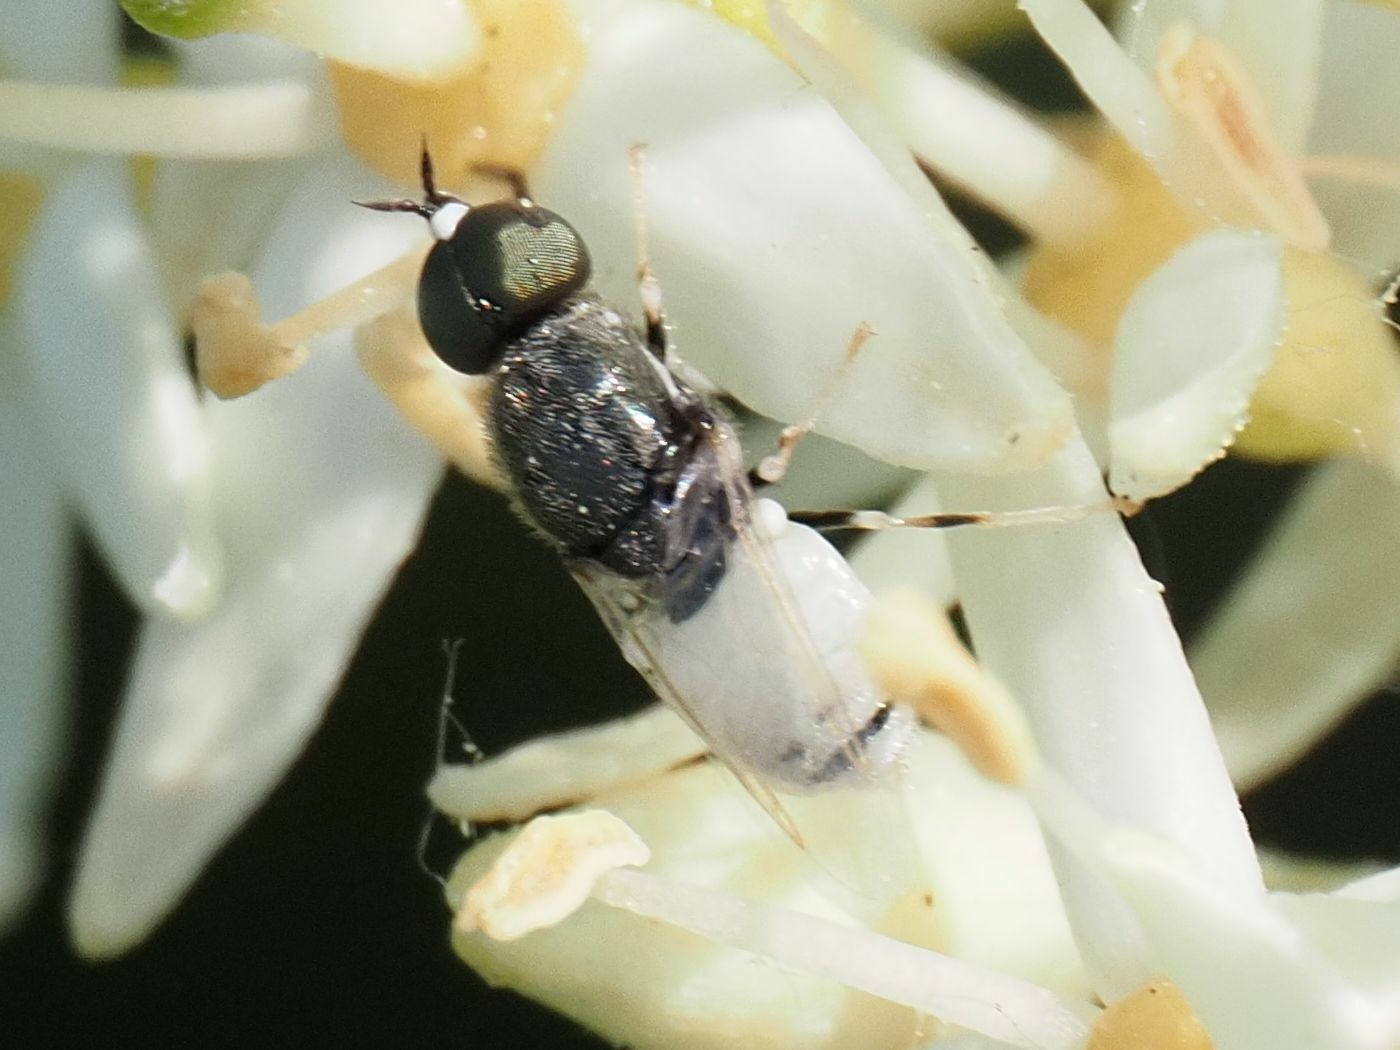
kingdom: Animalia
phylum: Arthropoda
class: Insecta
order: Diptera
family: Stratiomyidae
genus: Nemotelus
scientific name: Nemotelus pantherina
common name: Fen snout
